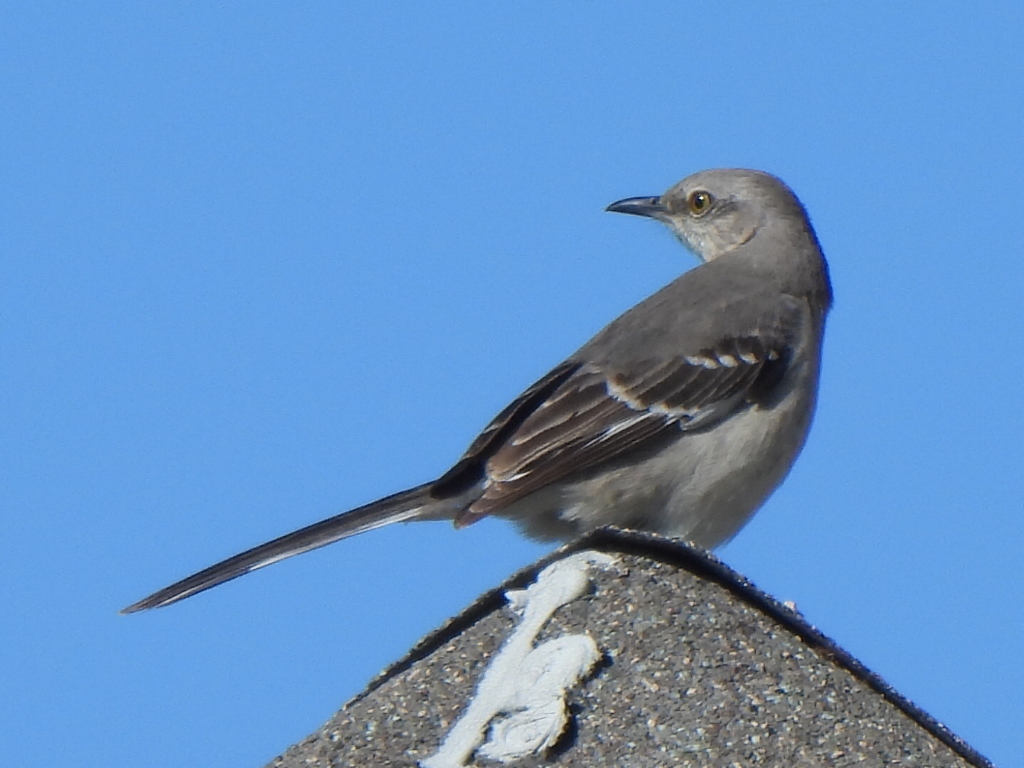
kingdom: Animalia
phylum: Chordata
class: Aves
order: Passeriformes
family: Mimidae
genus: Mimus
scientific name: Mimus polyglottos
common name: Northern mockingbird
